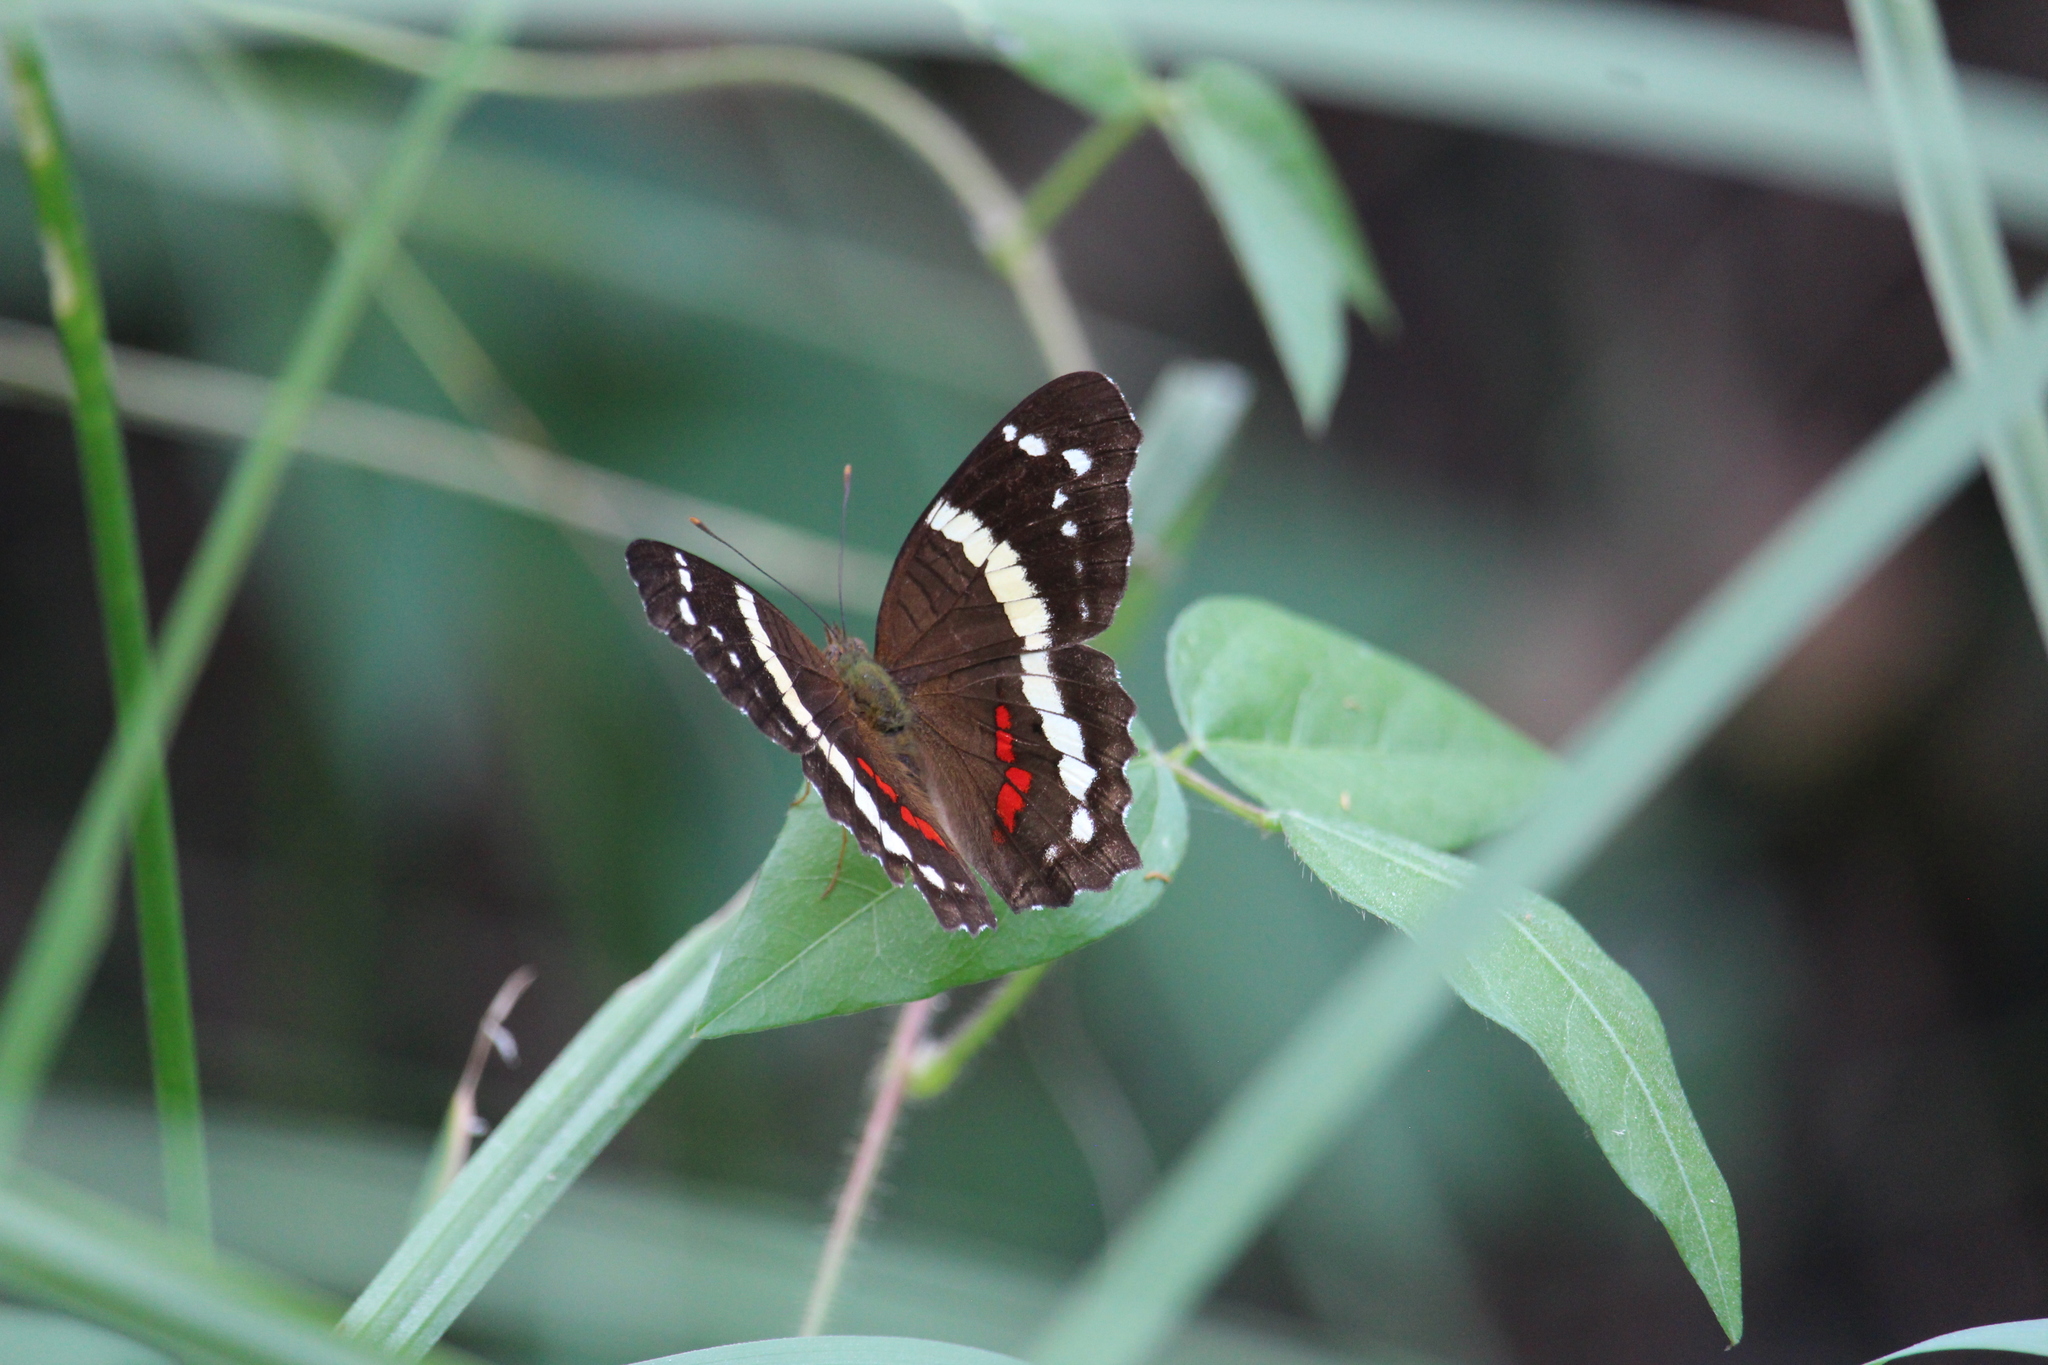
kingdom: Animalia
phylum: Arthropoda
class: Insecta
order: Lepidoptera
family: Nymphalidae
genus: Anartia
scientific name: Anartia fatima
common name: Banded peacock
